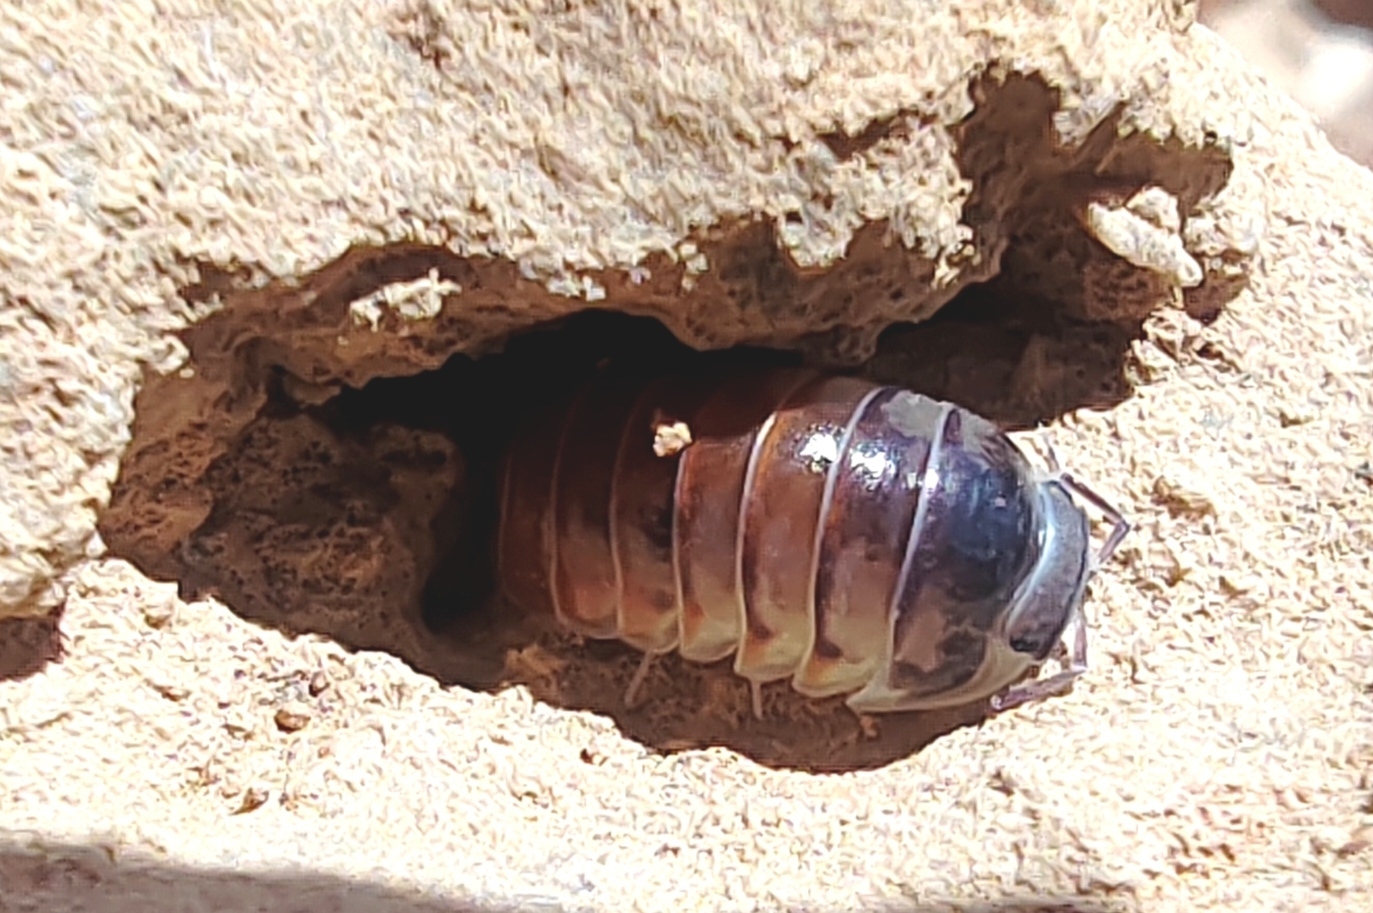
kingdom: Animalia
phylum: Arthropoda
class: Malacostraca
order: Isopoda
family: Eubelidae
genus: Periscyphis
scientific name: Periscyphis omanensis
